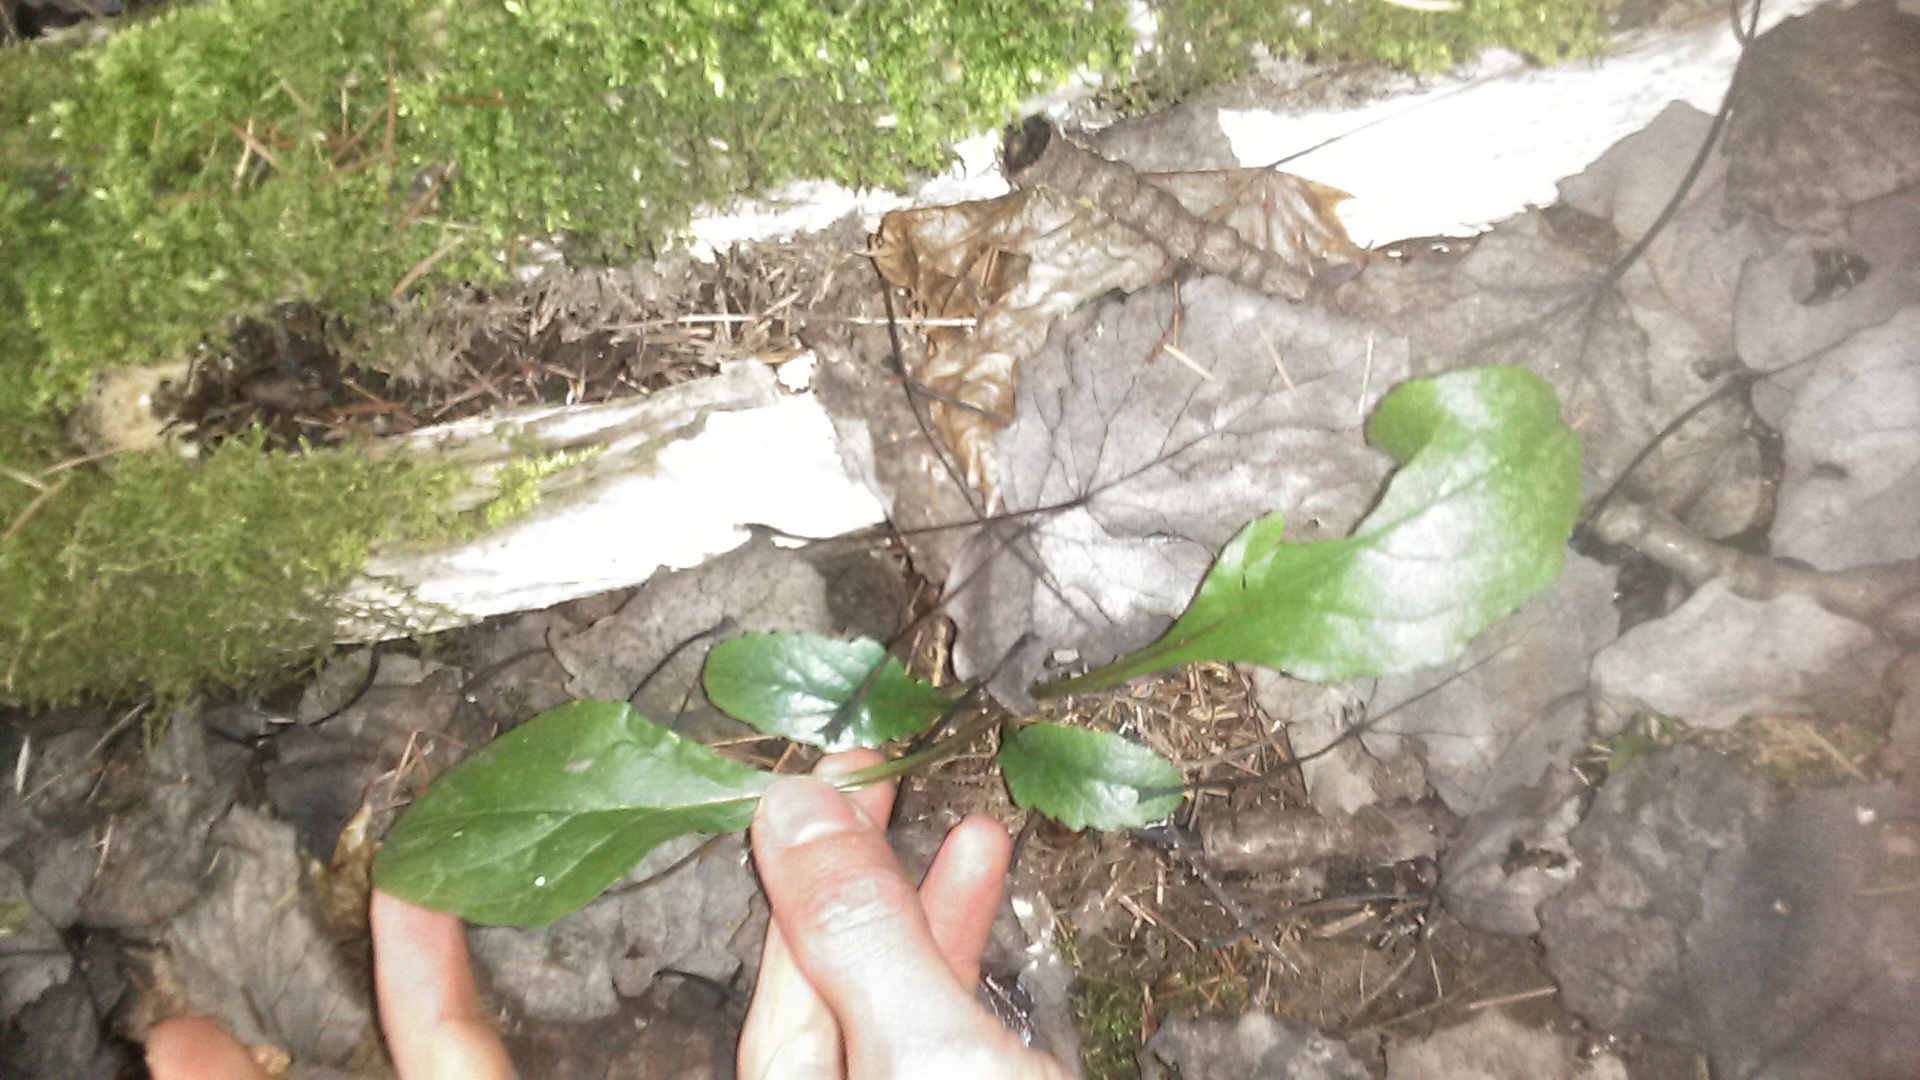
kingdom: Plantae
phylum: Tracheophyta
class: Magnoliopsida
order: Lamiales
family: Lamiaceae
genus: Ajuga
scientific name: Ajuga reptans
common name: Bugle
